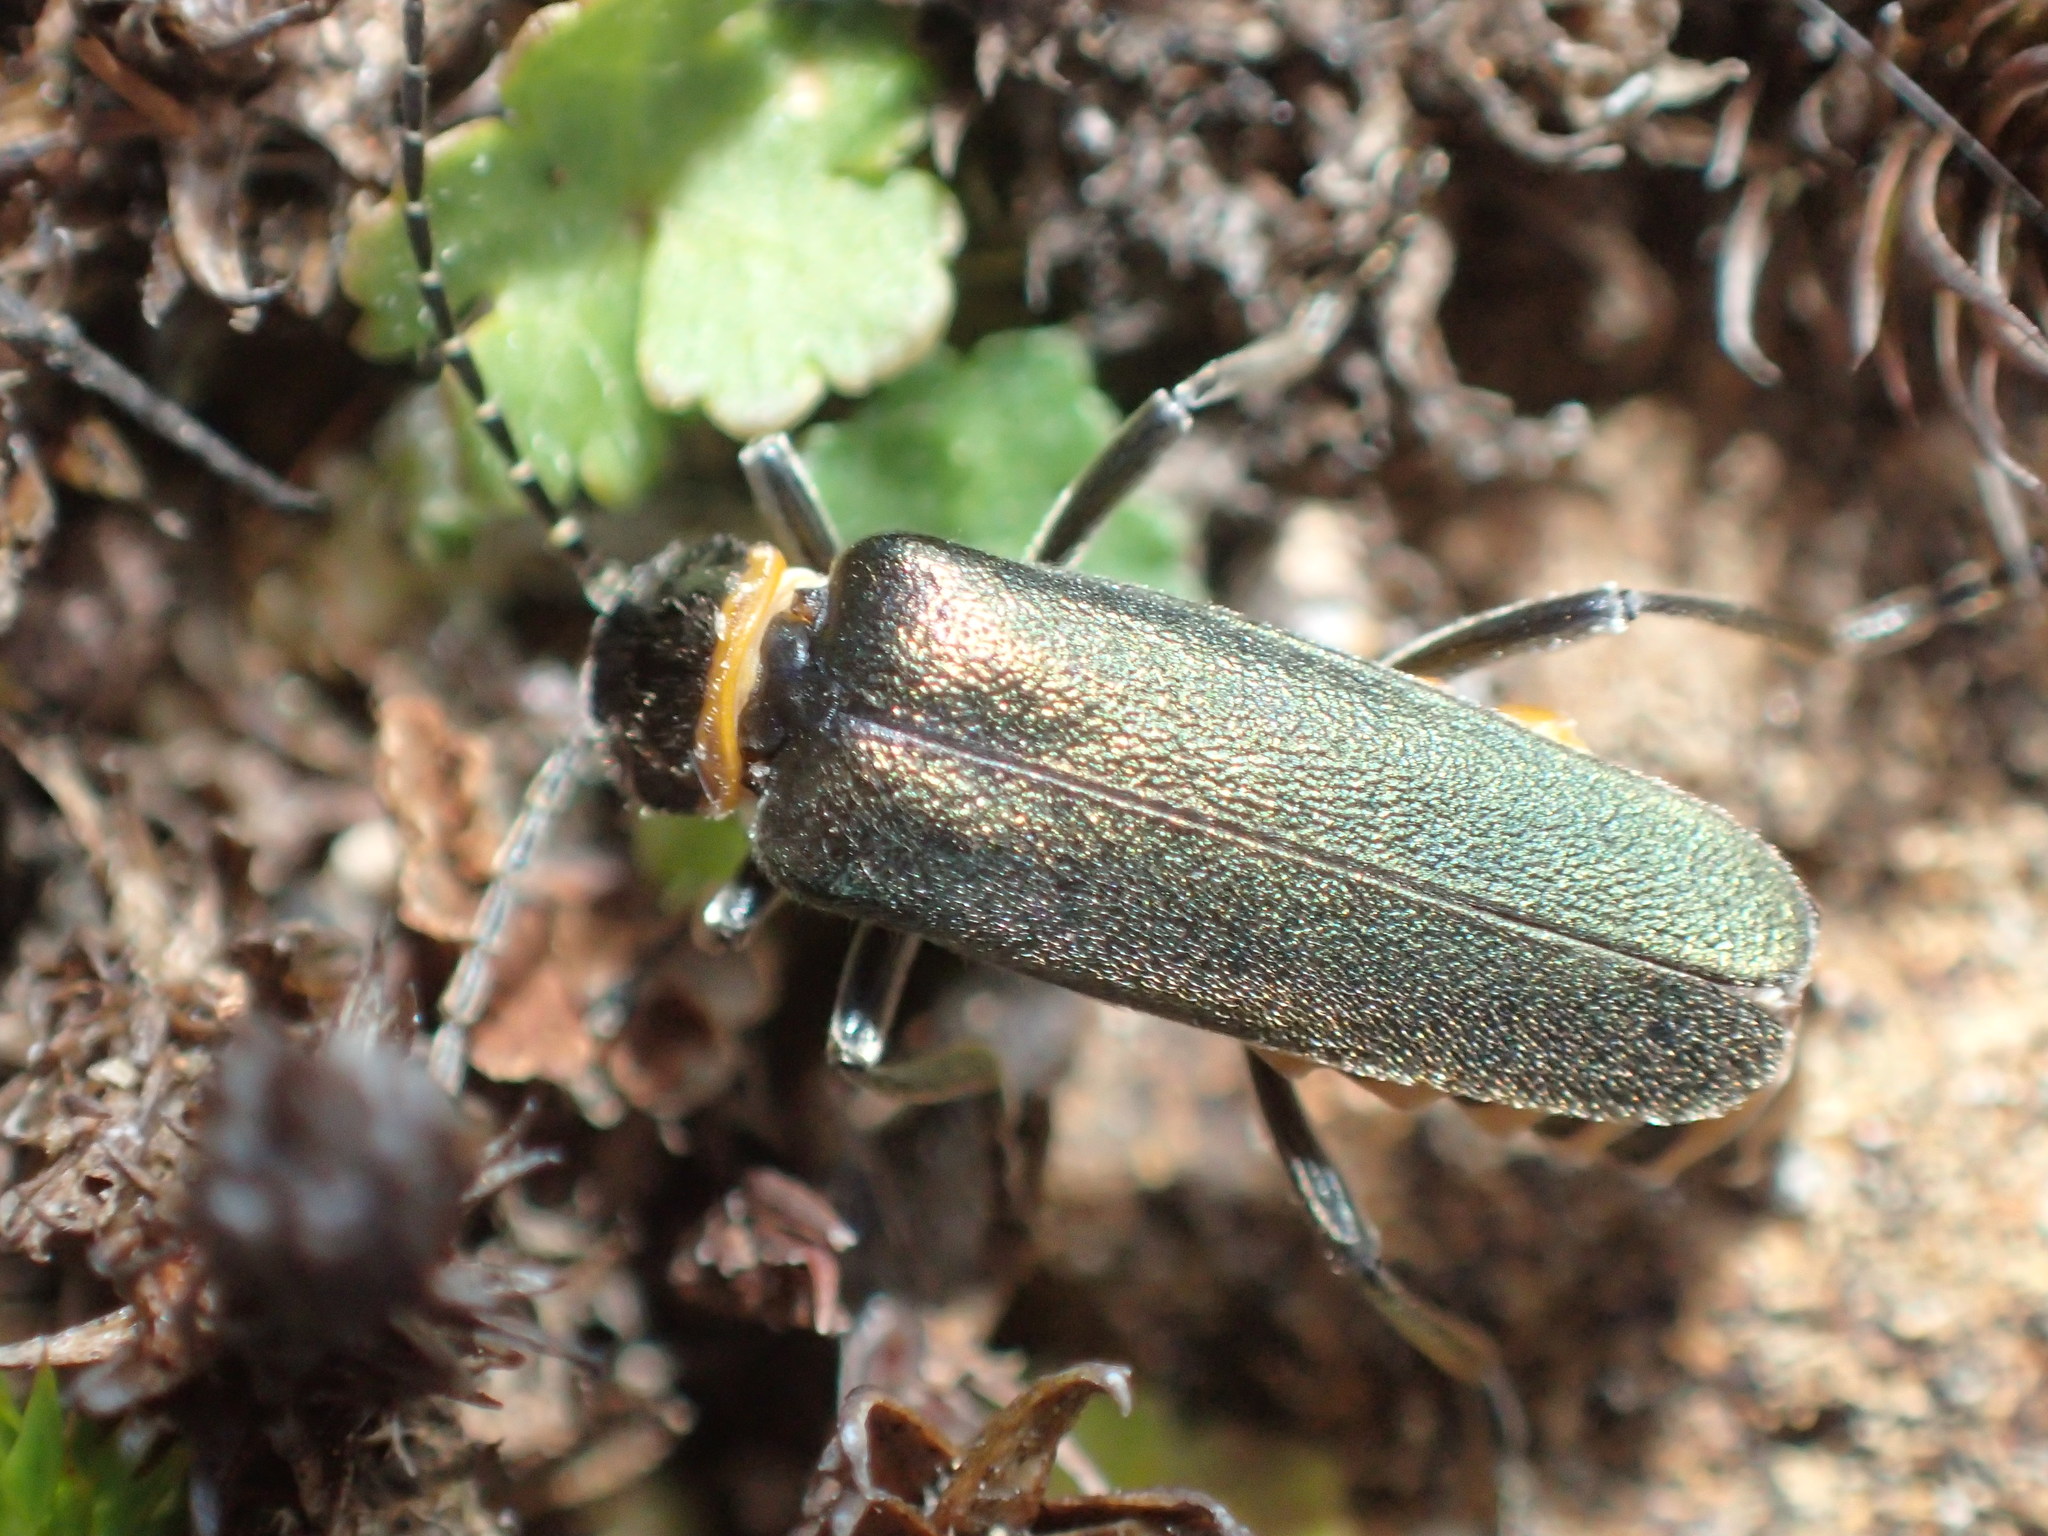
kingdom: Animalia
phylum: Arthropoda
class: Insecta
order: Coleoptera
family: Cantharidae
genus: Chauliognathus
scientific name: Chauliognathus
